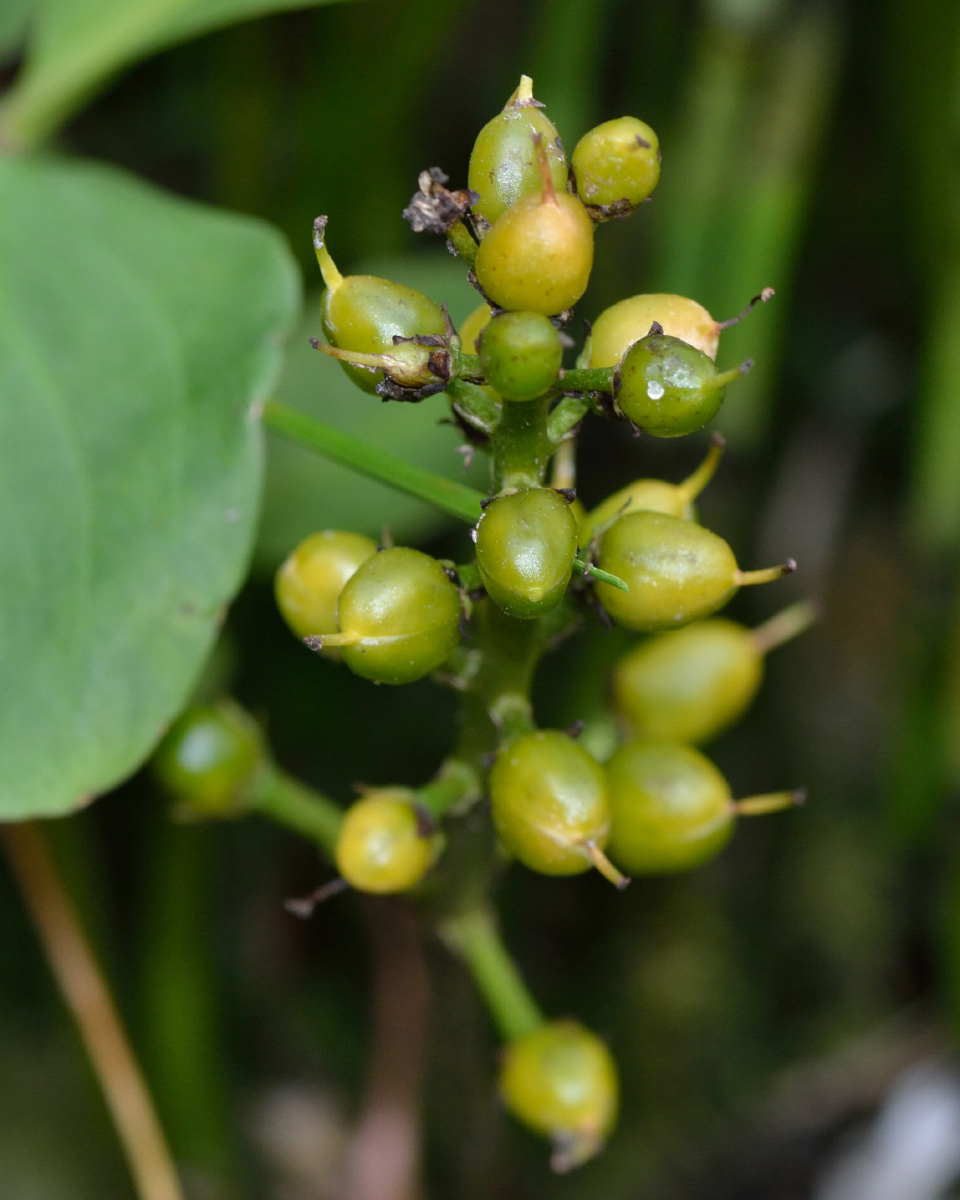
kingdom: Plantae
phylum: Tracheophyta
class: Magnoliopsida
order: Asterales
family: Menyanthaceae
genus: Menyanthes
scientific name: Menyanthes trifoliata
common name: Bogbean
